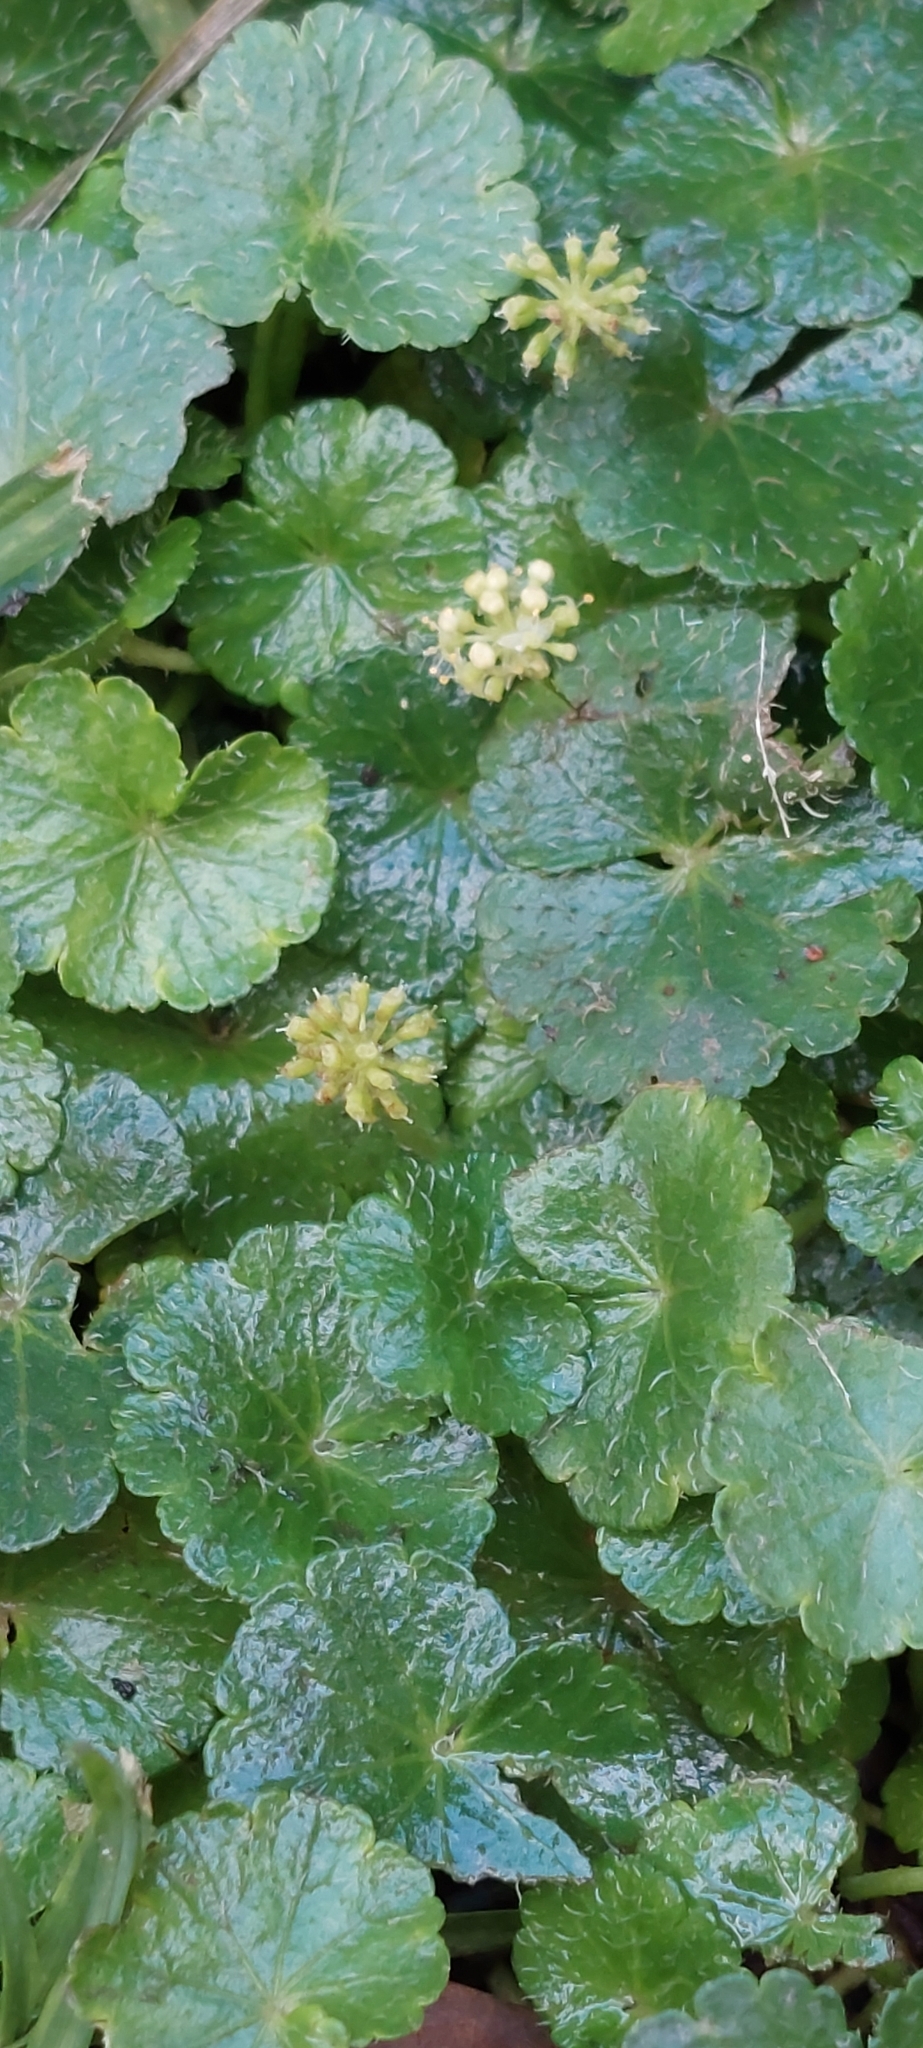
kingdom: Plantae
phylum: Tracheophyta
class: Magnoliopsida
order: Apiales
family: Araliaceae
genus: Hydrocotyle
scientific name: Hydrocotyle bonplandii
